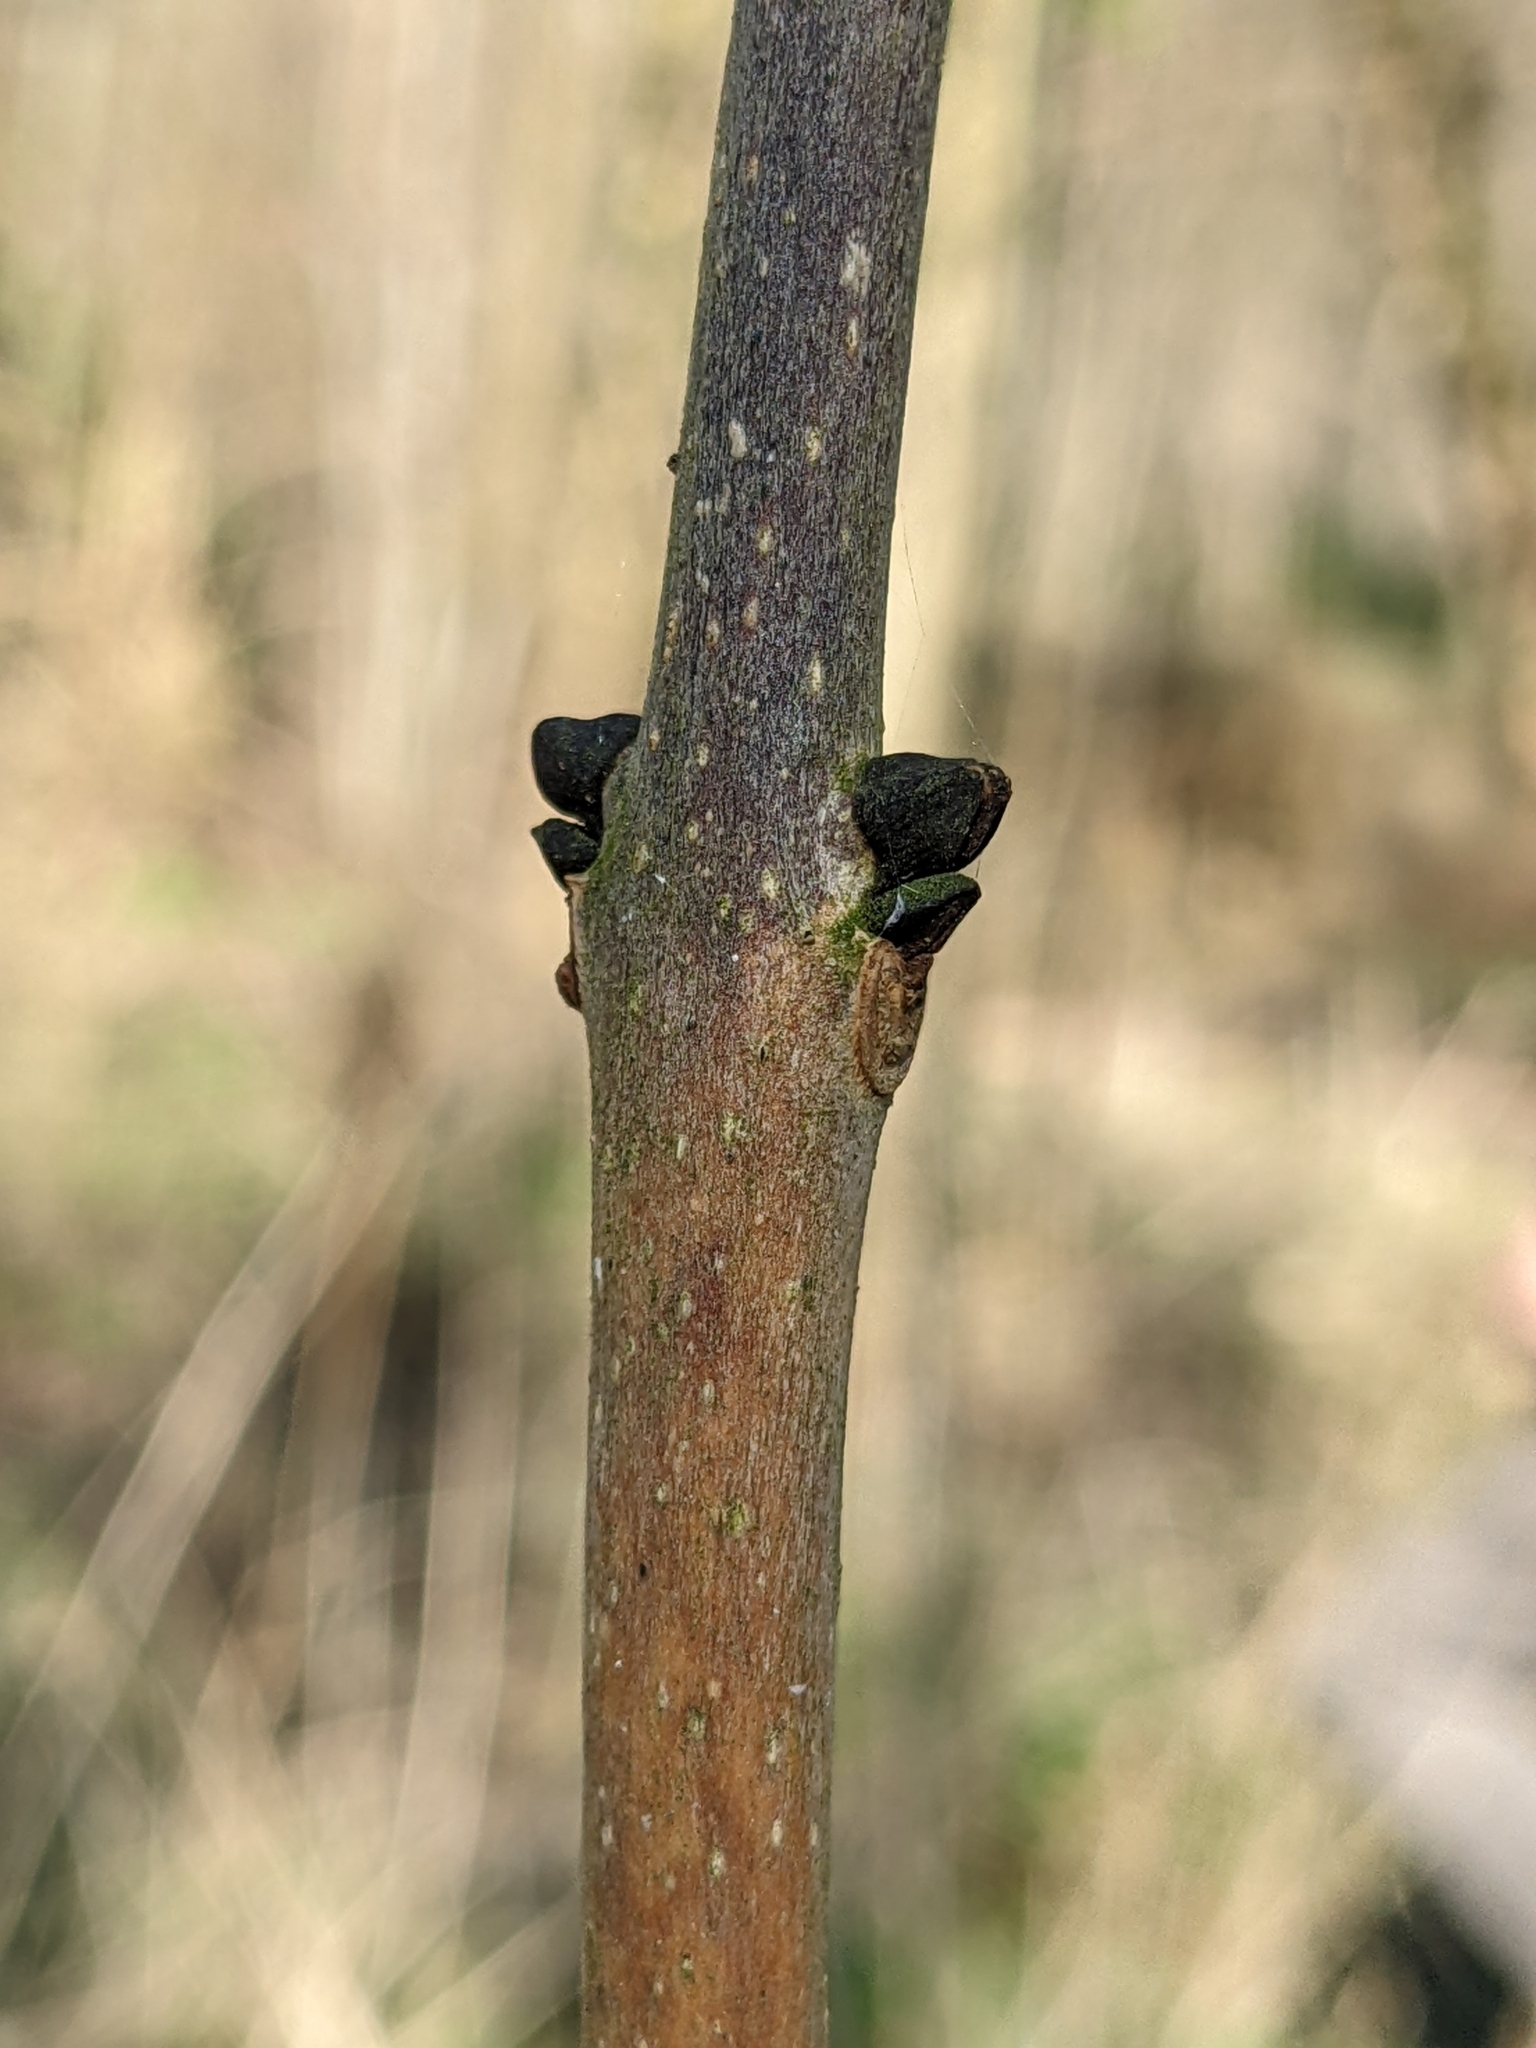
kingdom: Fungi
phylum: Ascomycota
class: Leotiomycetes
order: Helotiales
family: Helotiaceae
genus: Hymenoscyphus
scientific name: Hymenoscyphus fraxineus
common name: Ash dieback
